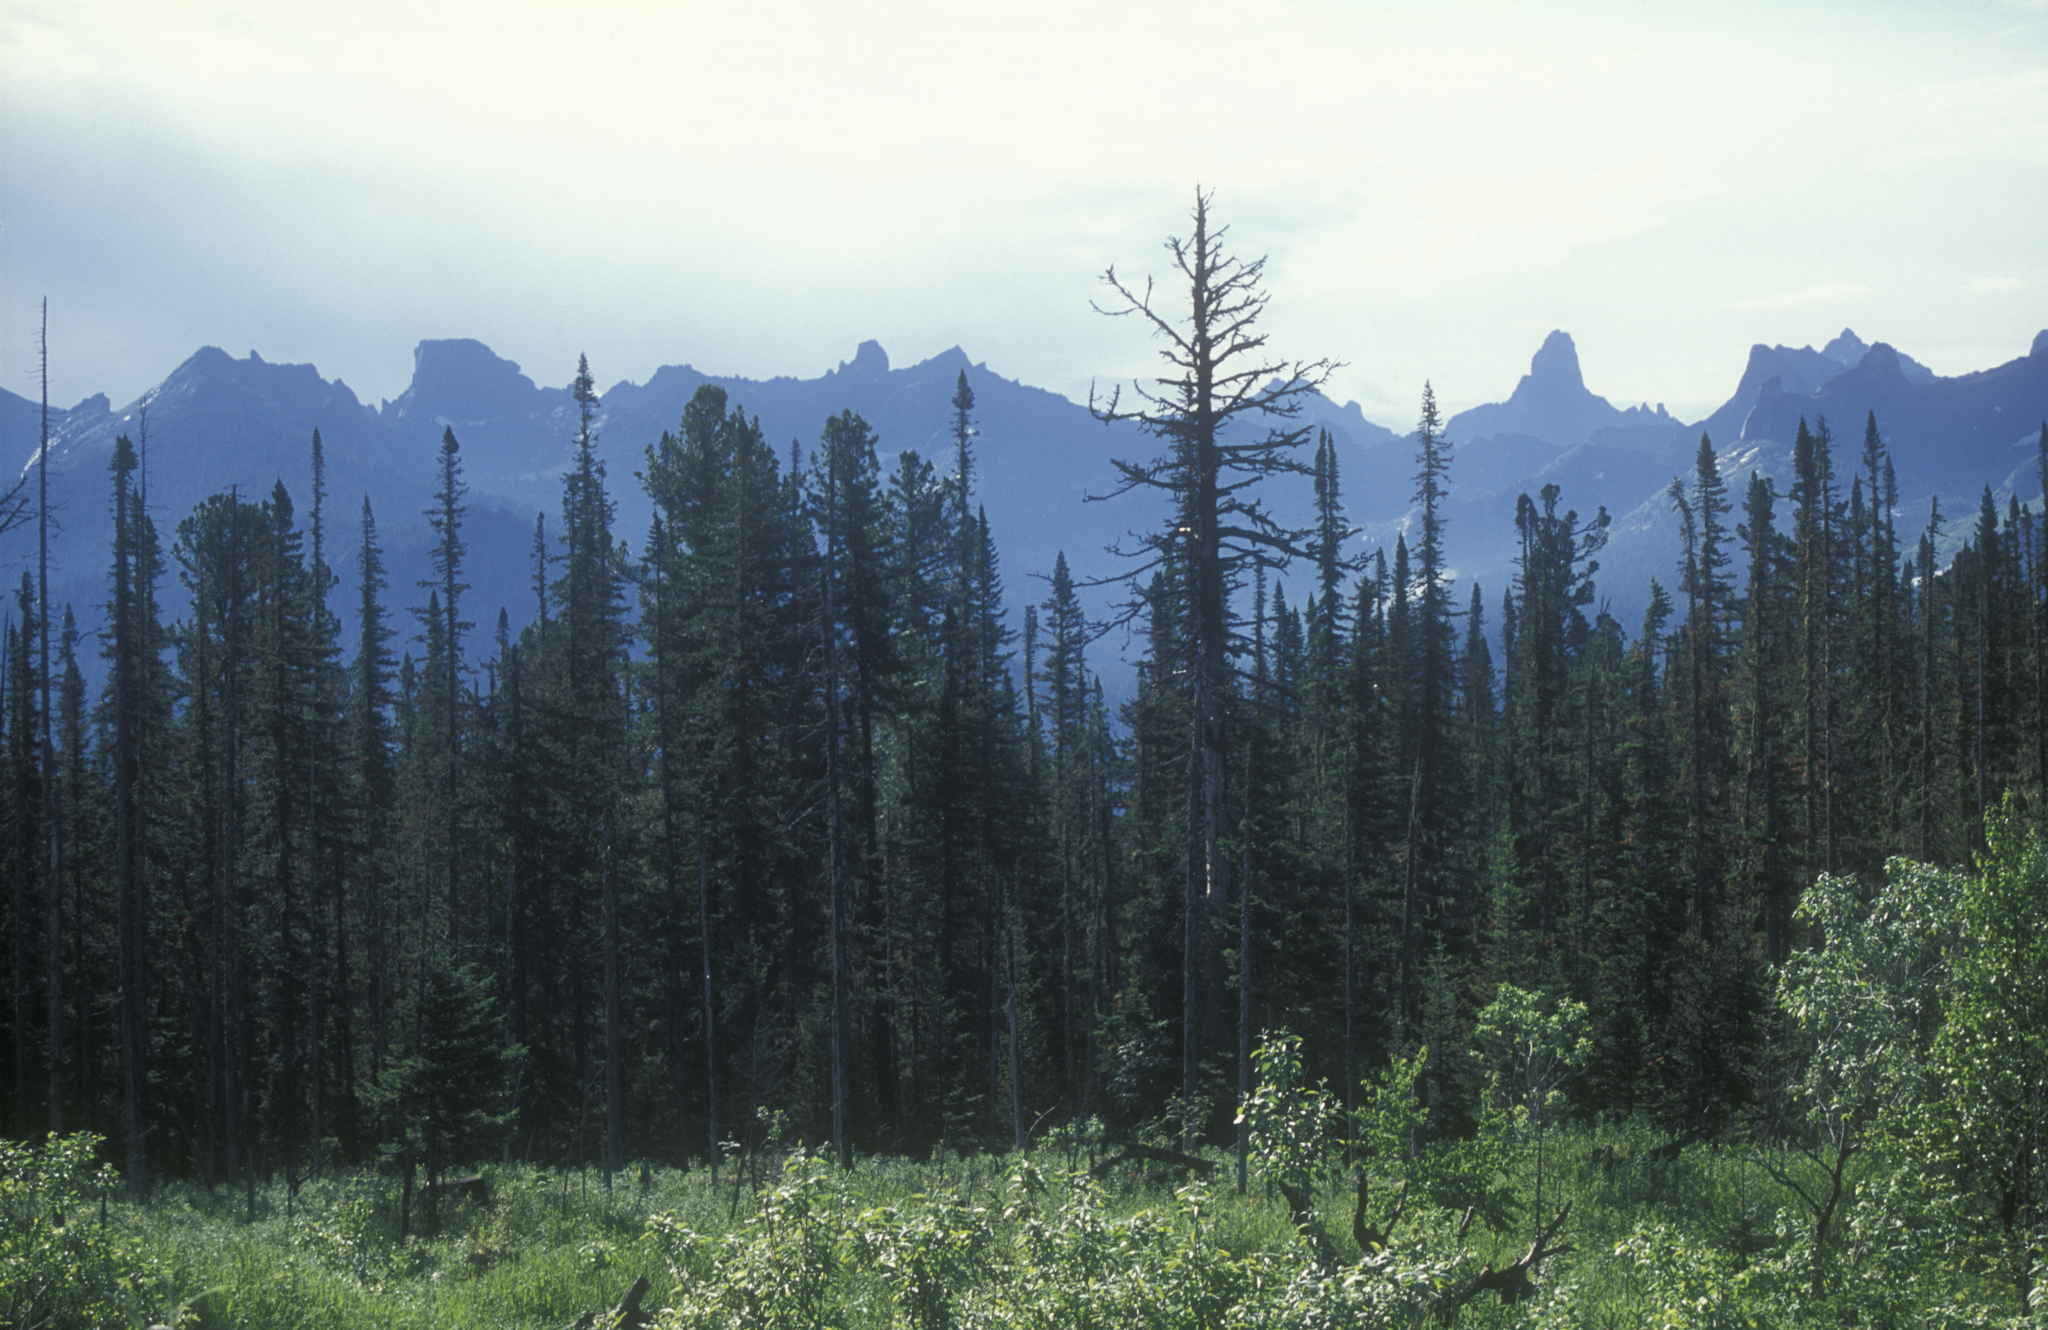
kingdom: Plantae
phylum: Tracheophyta
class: Pinopsida
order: Pinales
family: Pinaceae
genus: Pinus
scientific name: Pinus sibirica
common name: Siberian pine
